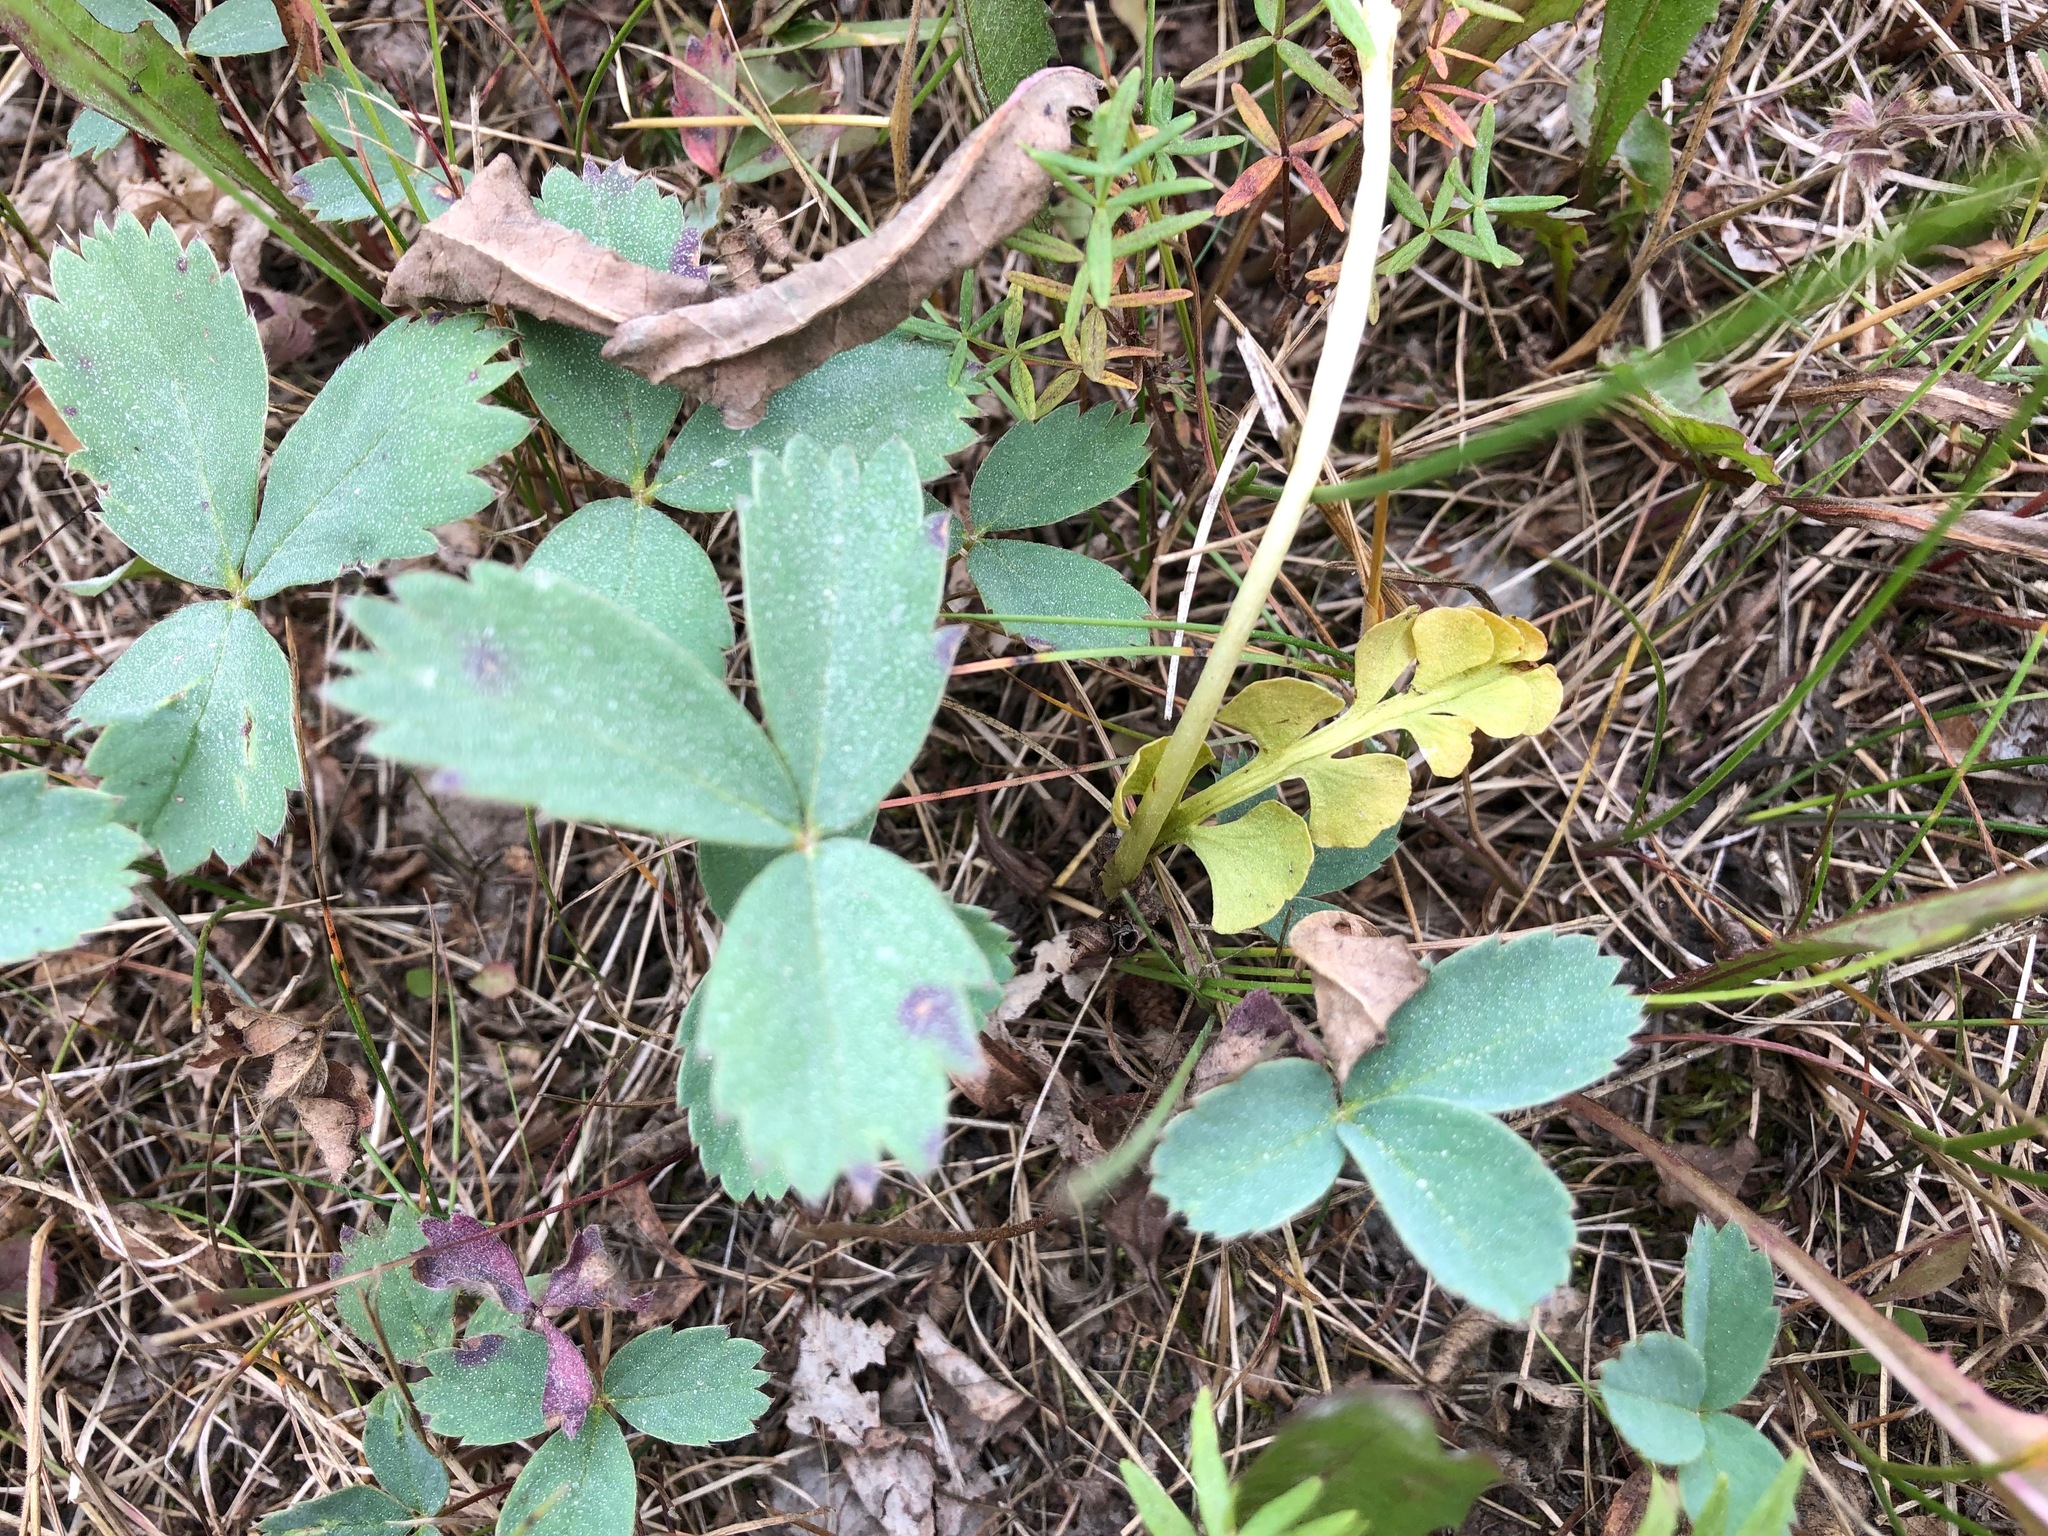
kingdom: Plantae
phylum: Tracheophyta
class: Magnoliopsida
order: Rosales
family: Rosaceae
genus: Fragaria
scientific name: Fragaria virginiana
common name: Thickleaved wild strawberry
